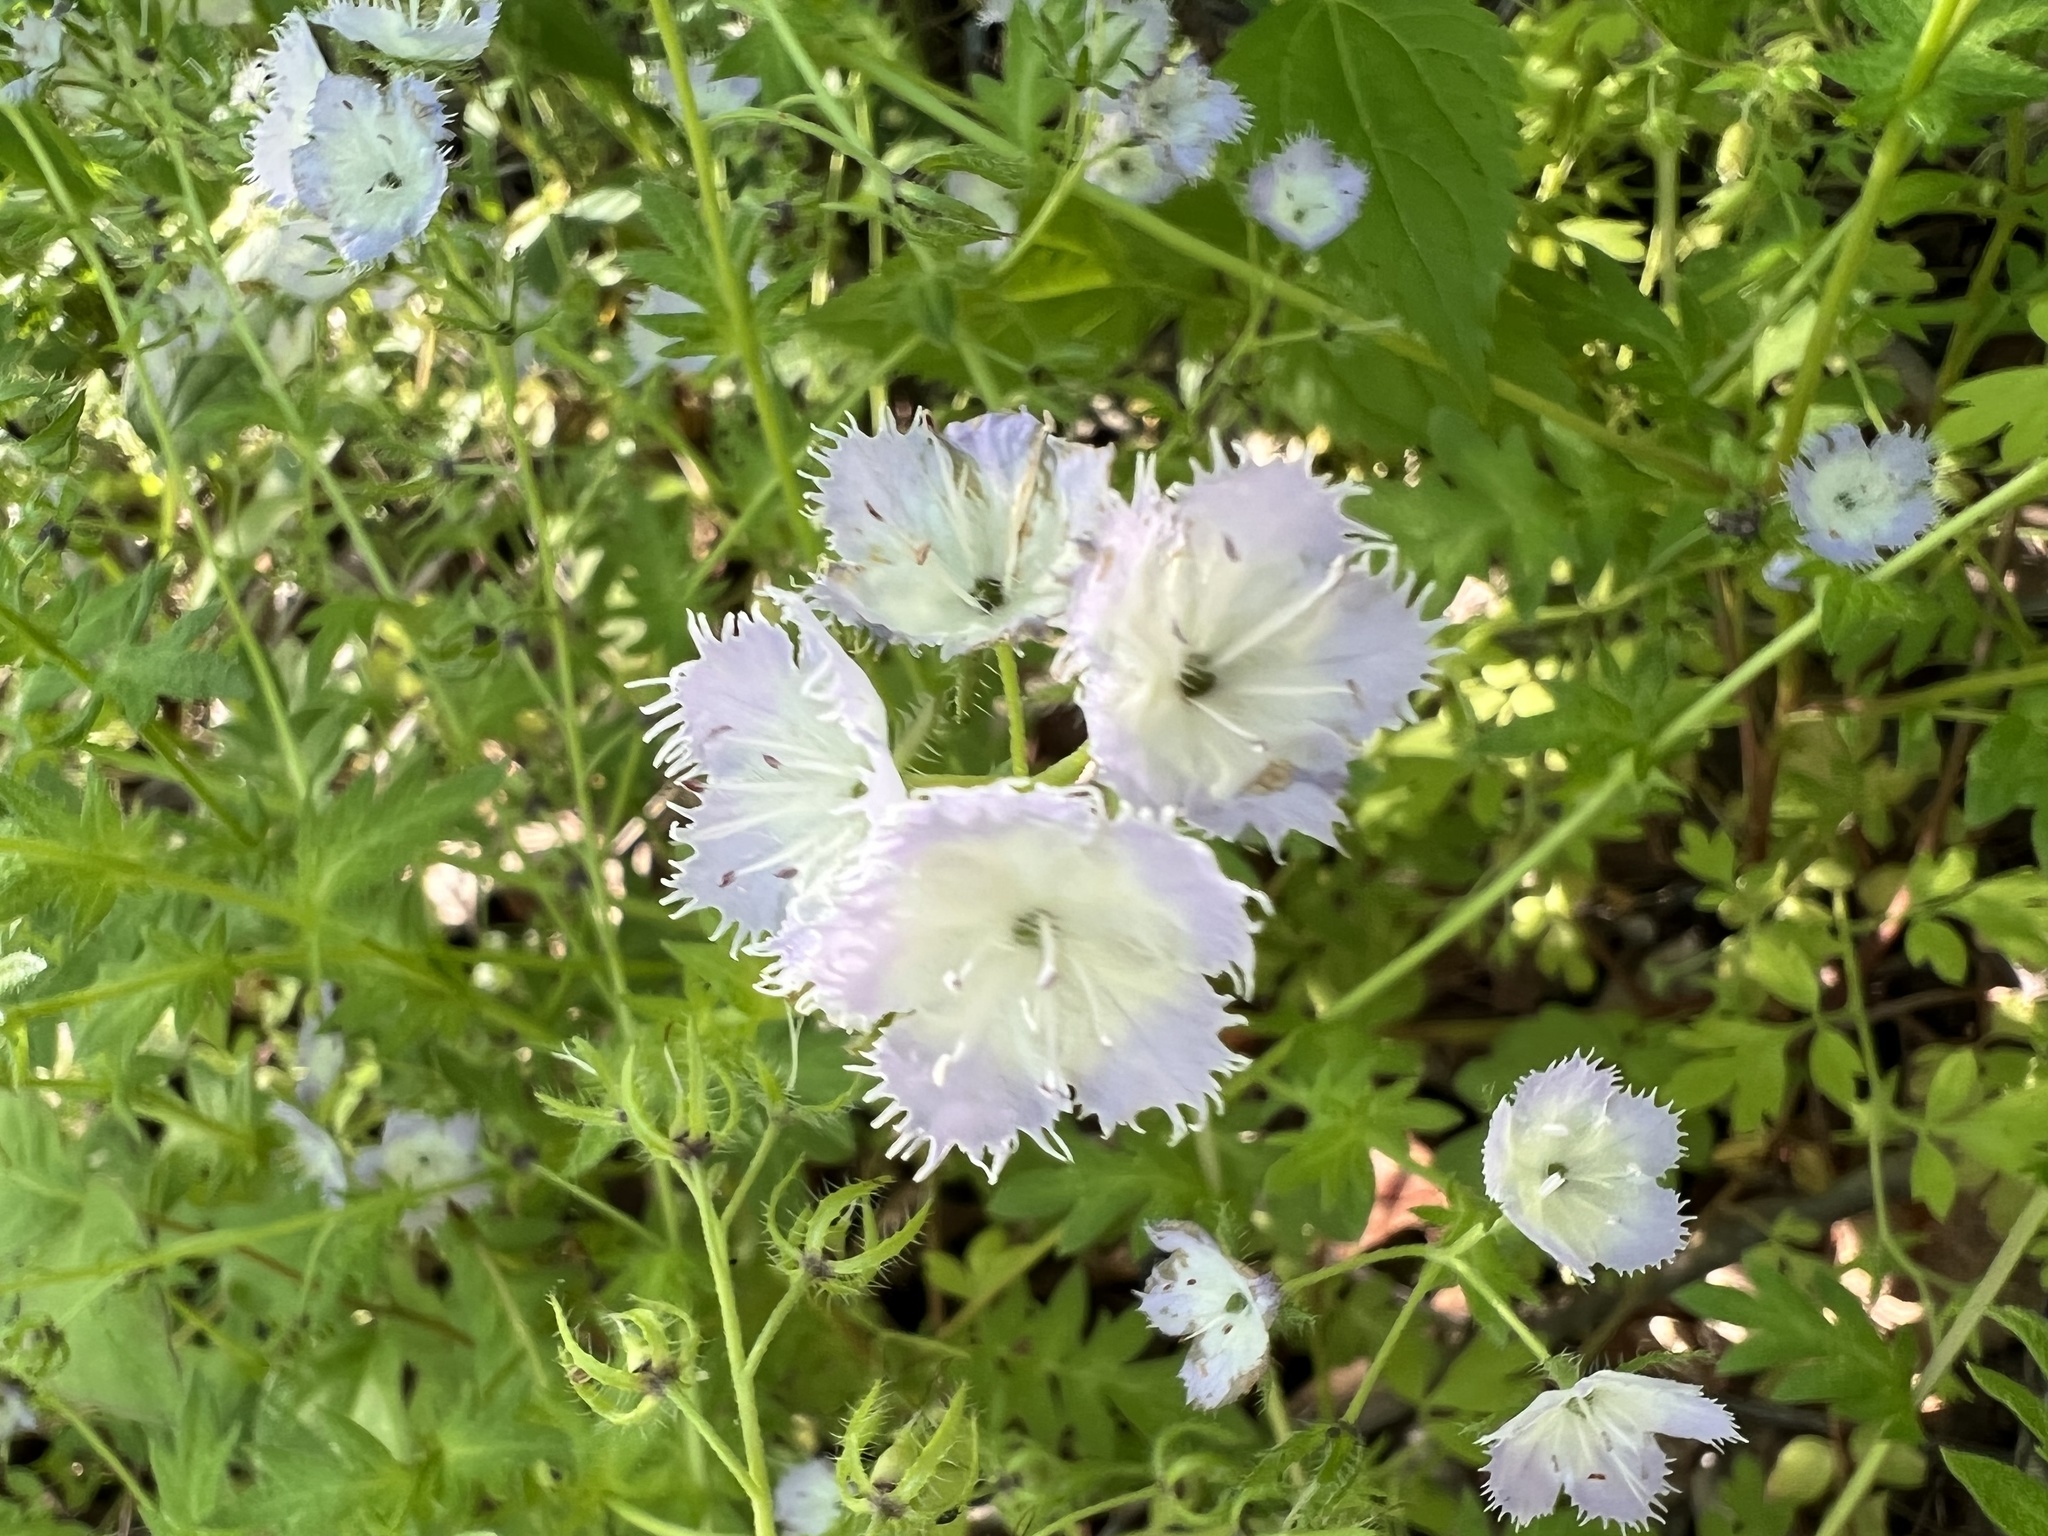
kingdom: Plantae
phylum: Tracheophyta
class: Magnoliopsida
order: Boraginales
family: Hydrophyllaceae
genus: Phacelia
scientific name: Phacelia purshii
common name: Miami-mist
